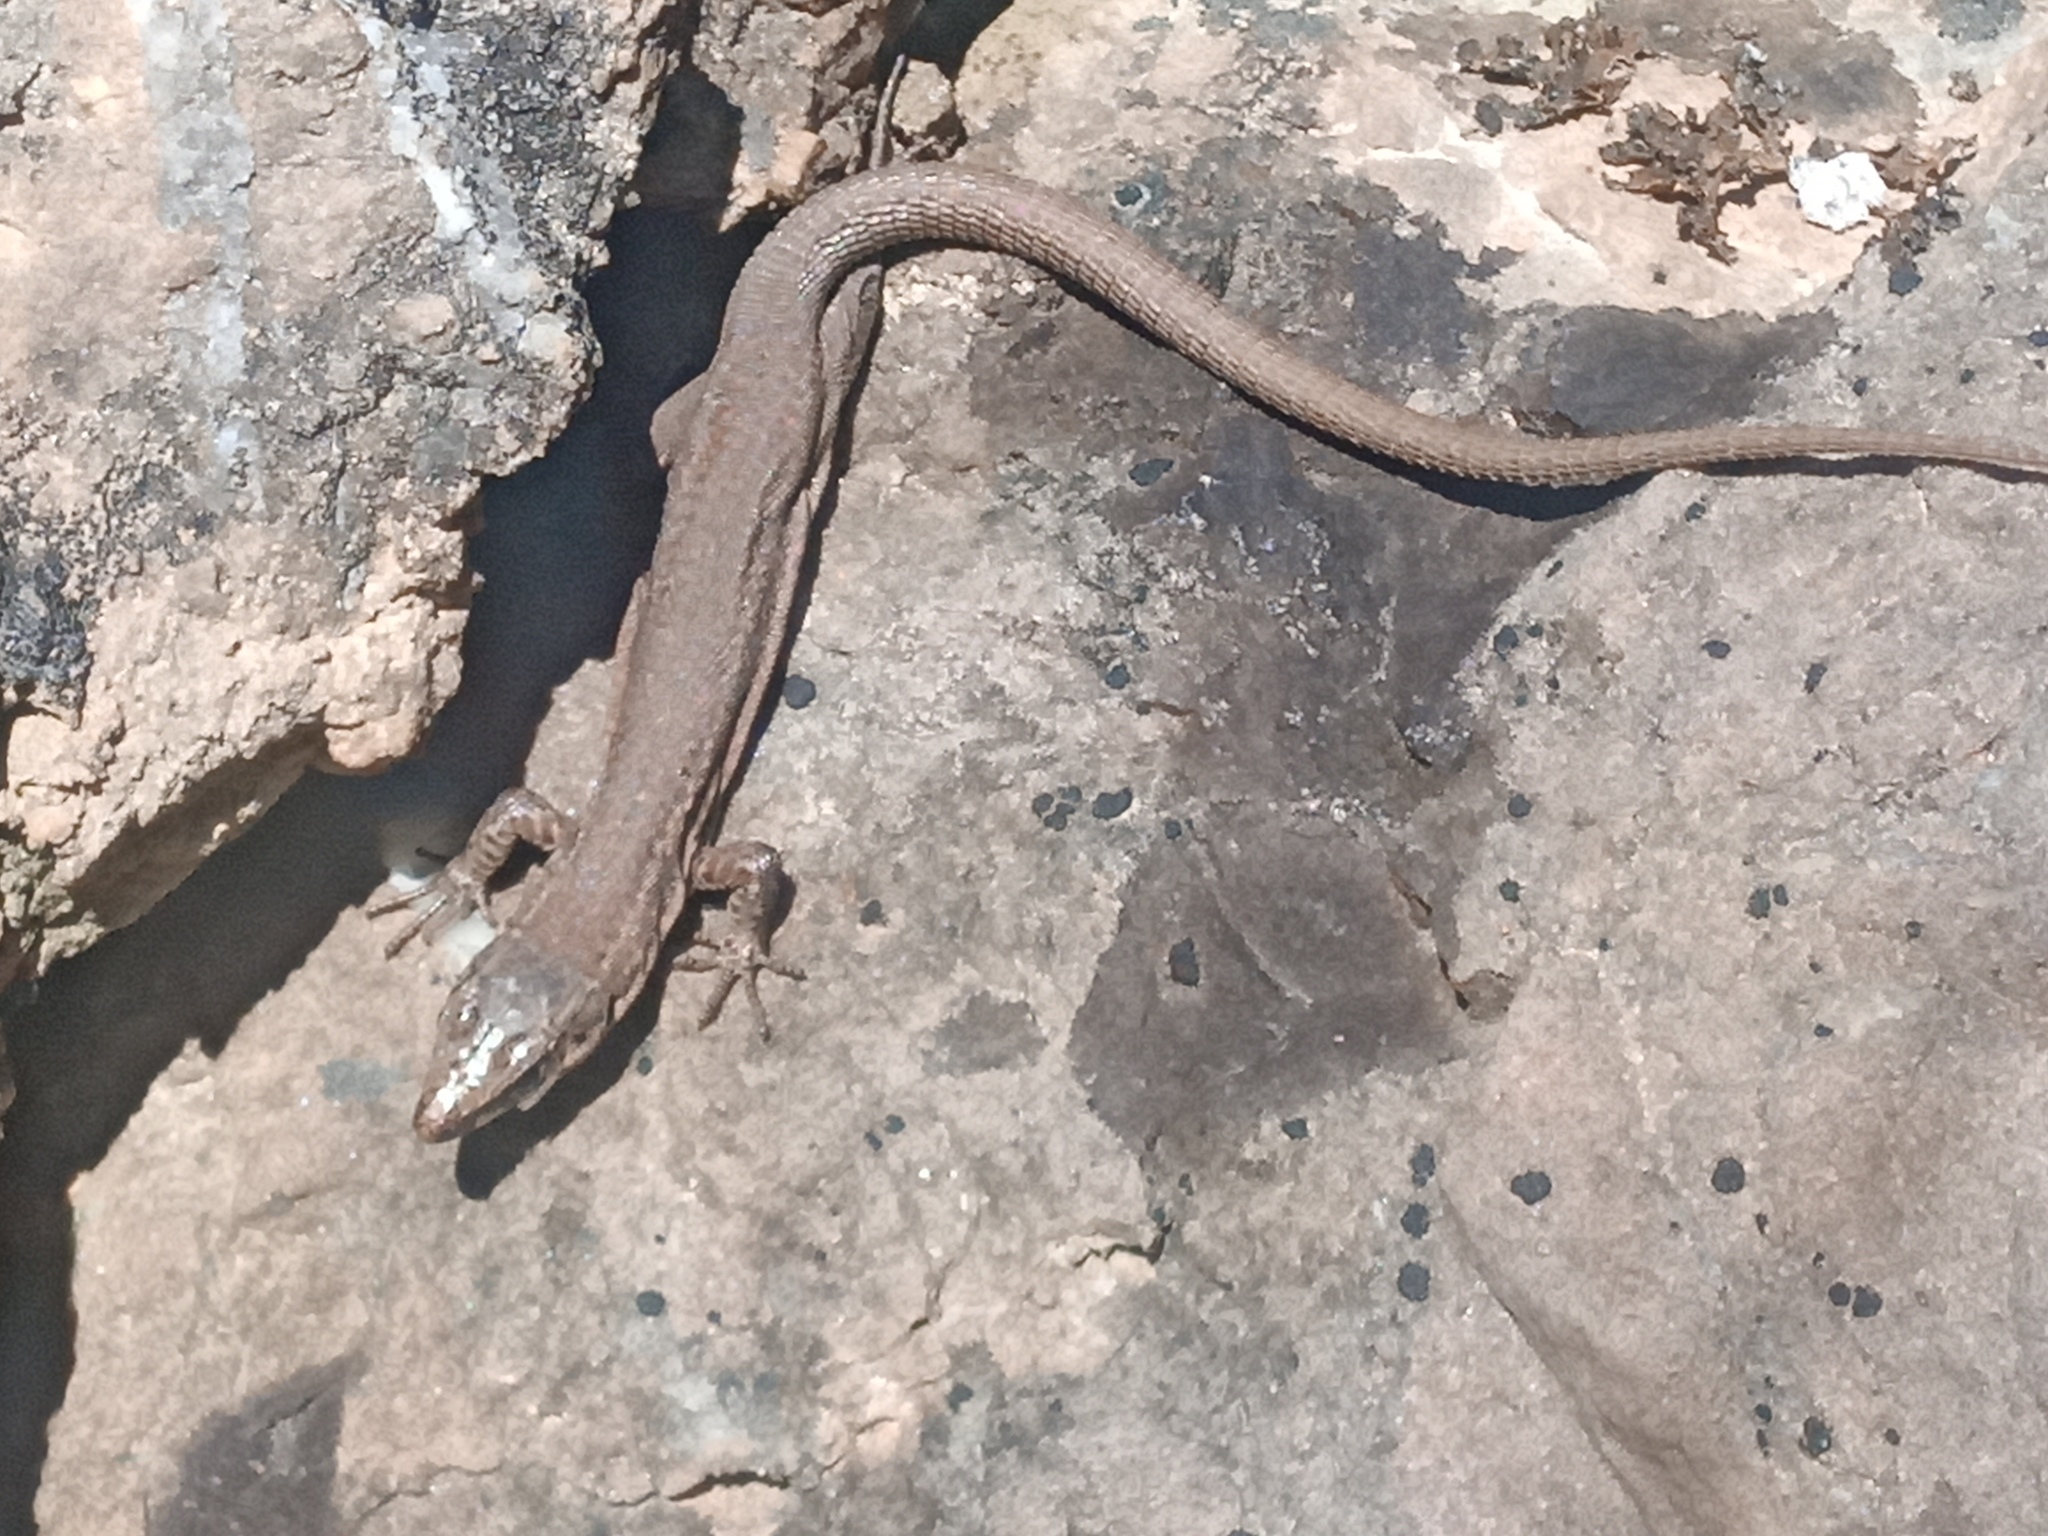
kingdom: Animalia
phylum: Chordata
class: Squamata
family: Lacertidae
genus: Podarcis
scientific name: Podarcis liolepis
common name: Catalonian wall lizard
